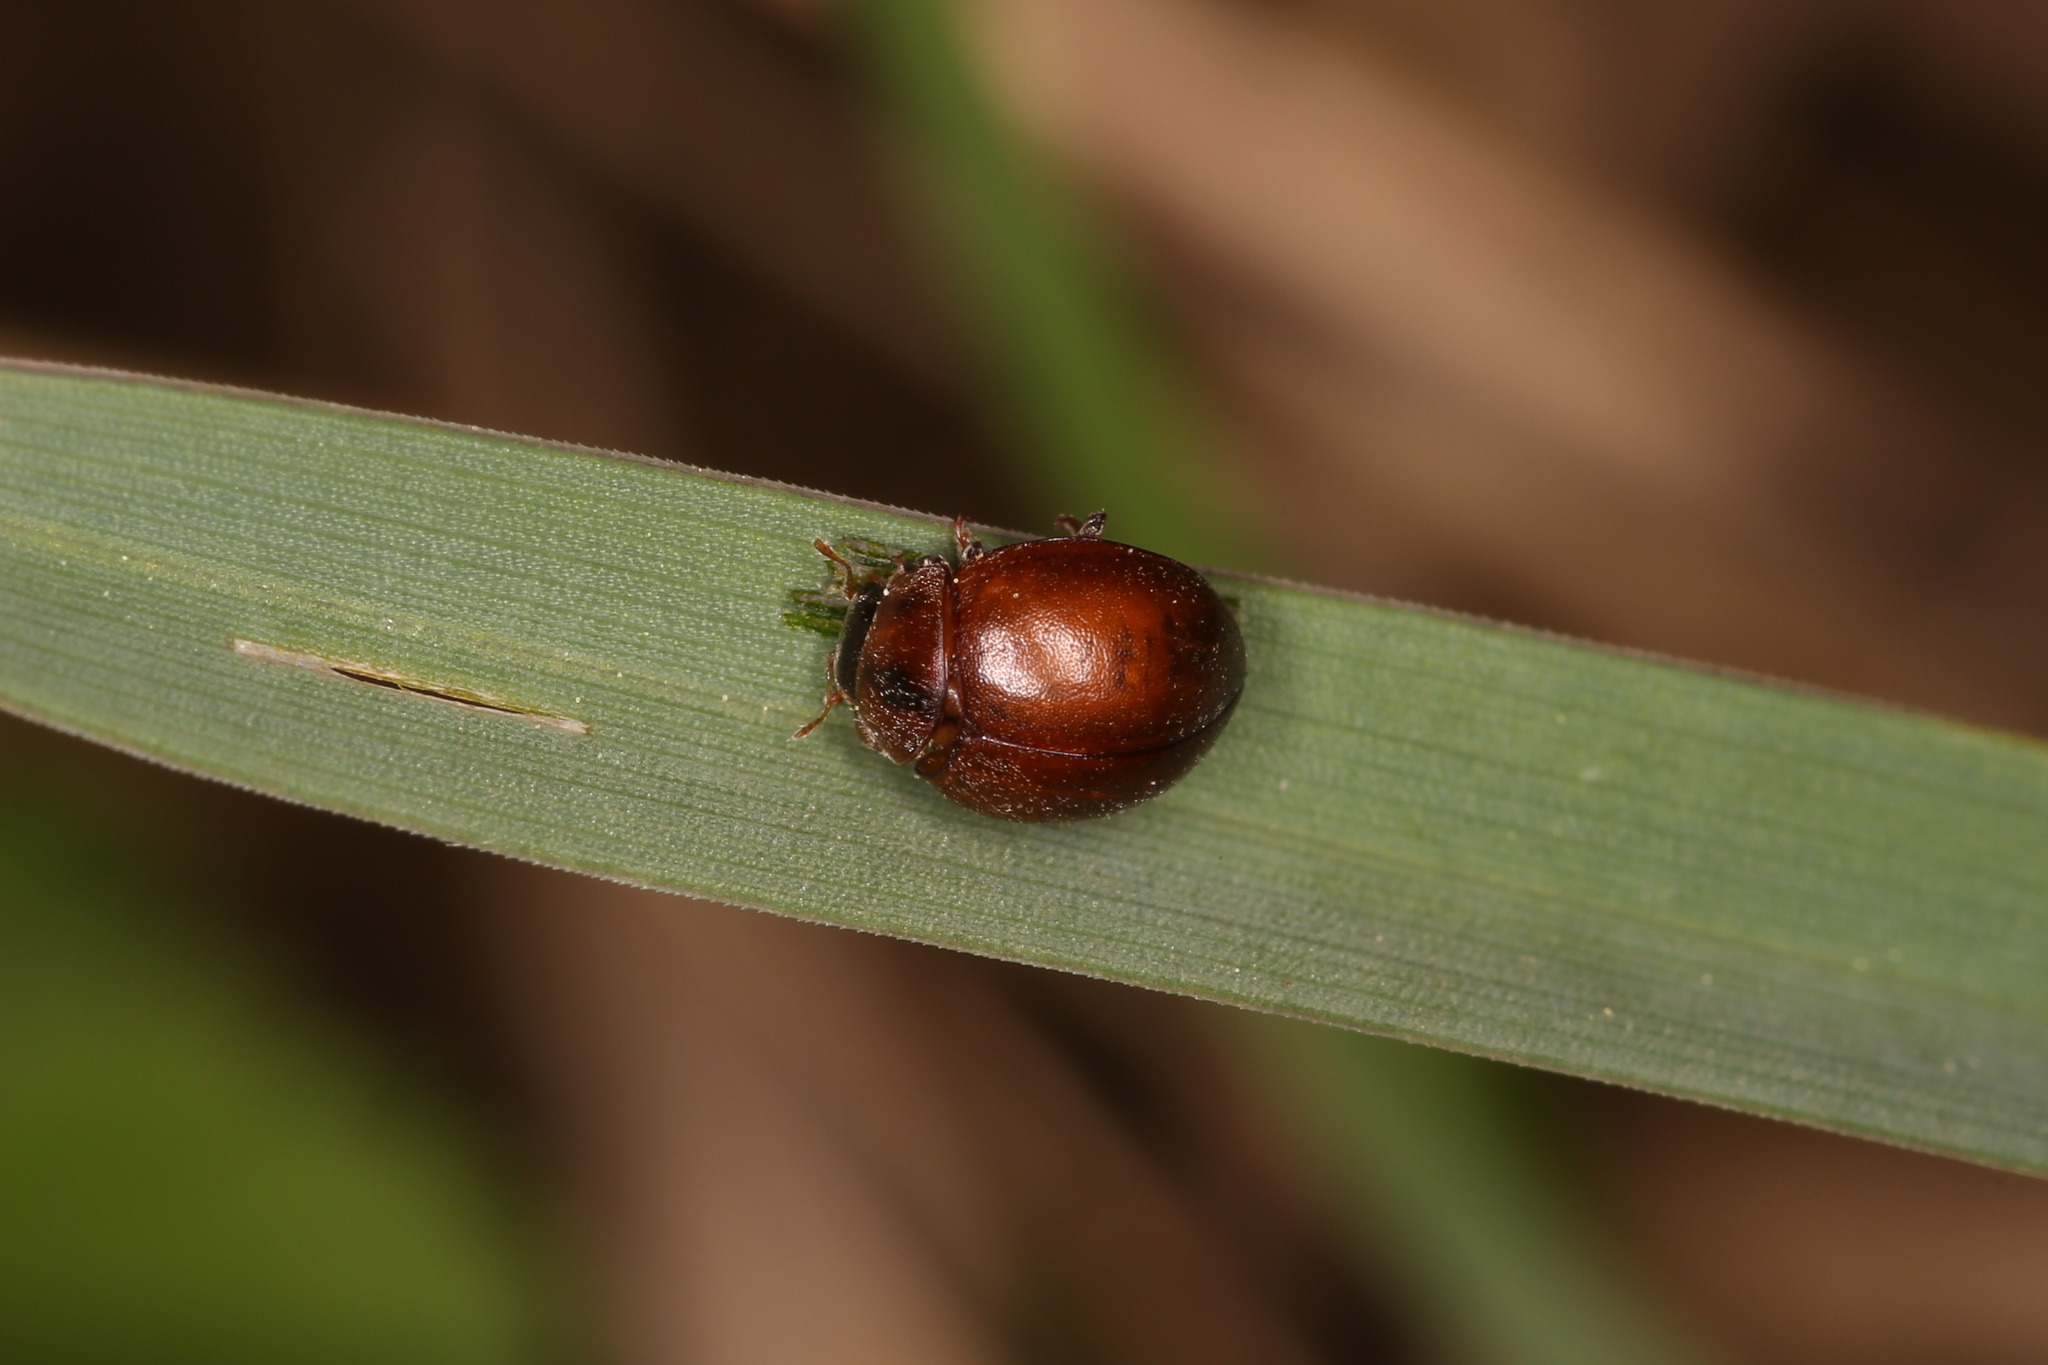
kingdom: Animalia
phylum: Arthropoda
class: Insecta
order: Coleoptera
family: Coccinellidae
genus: Cynegetis
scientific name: Cynegetis impunctata
